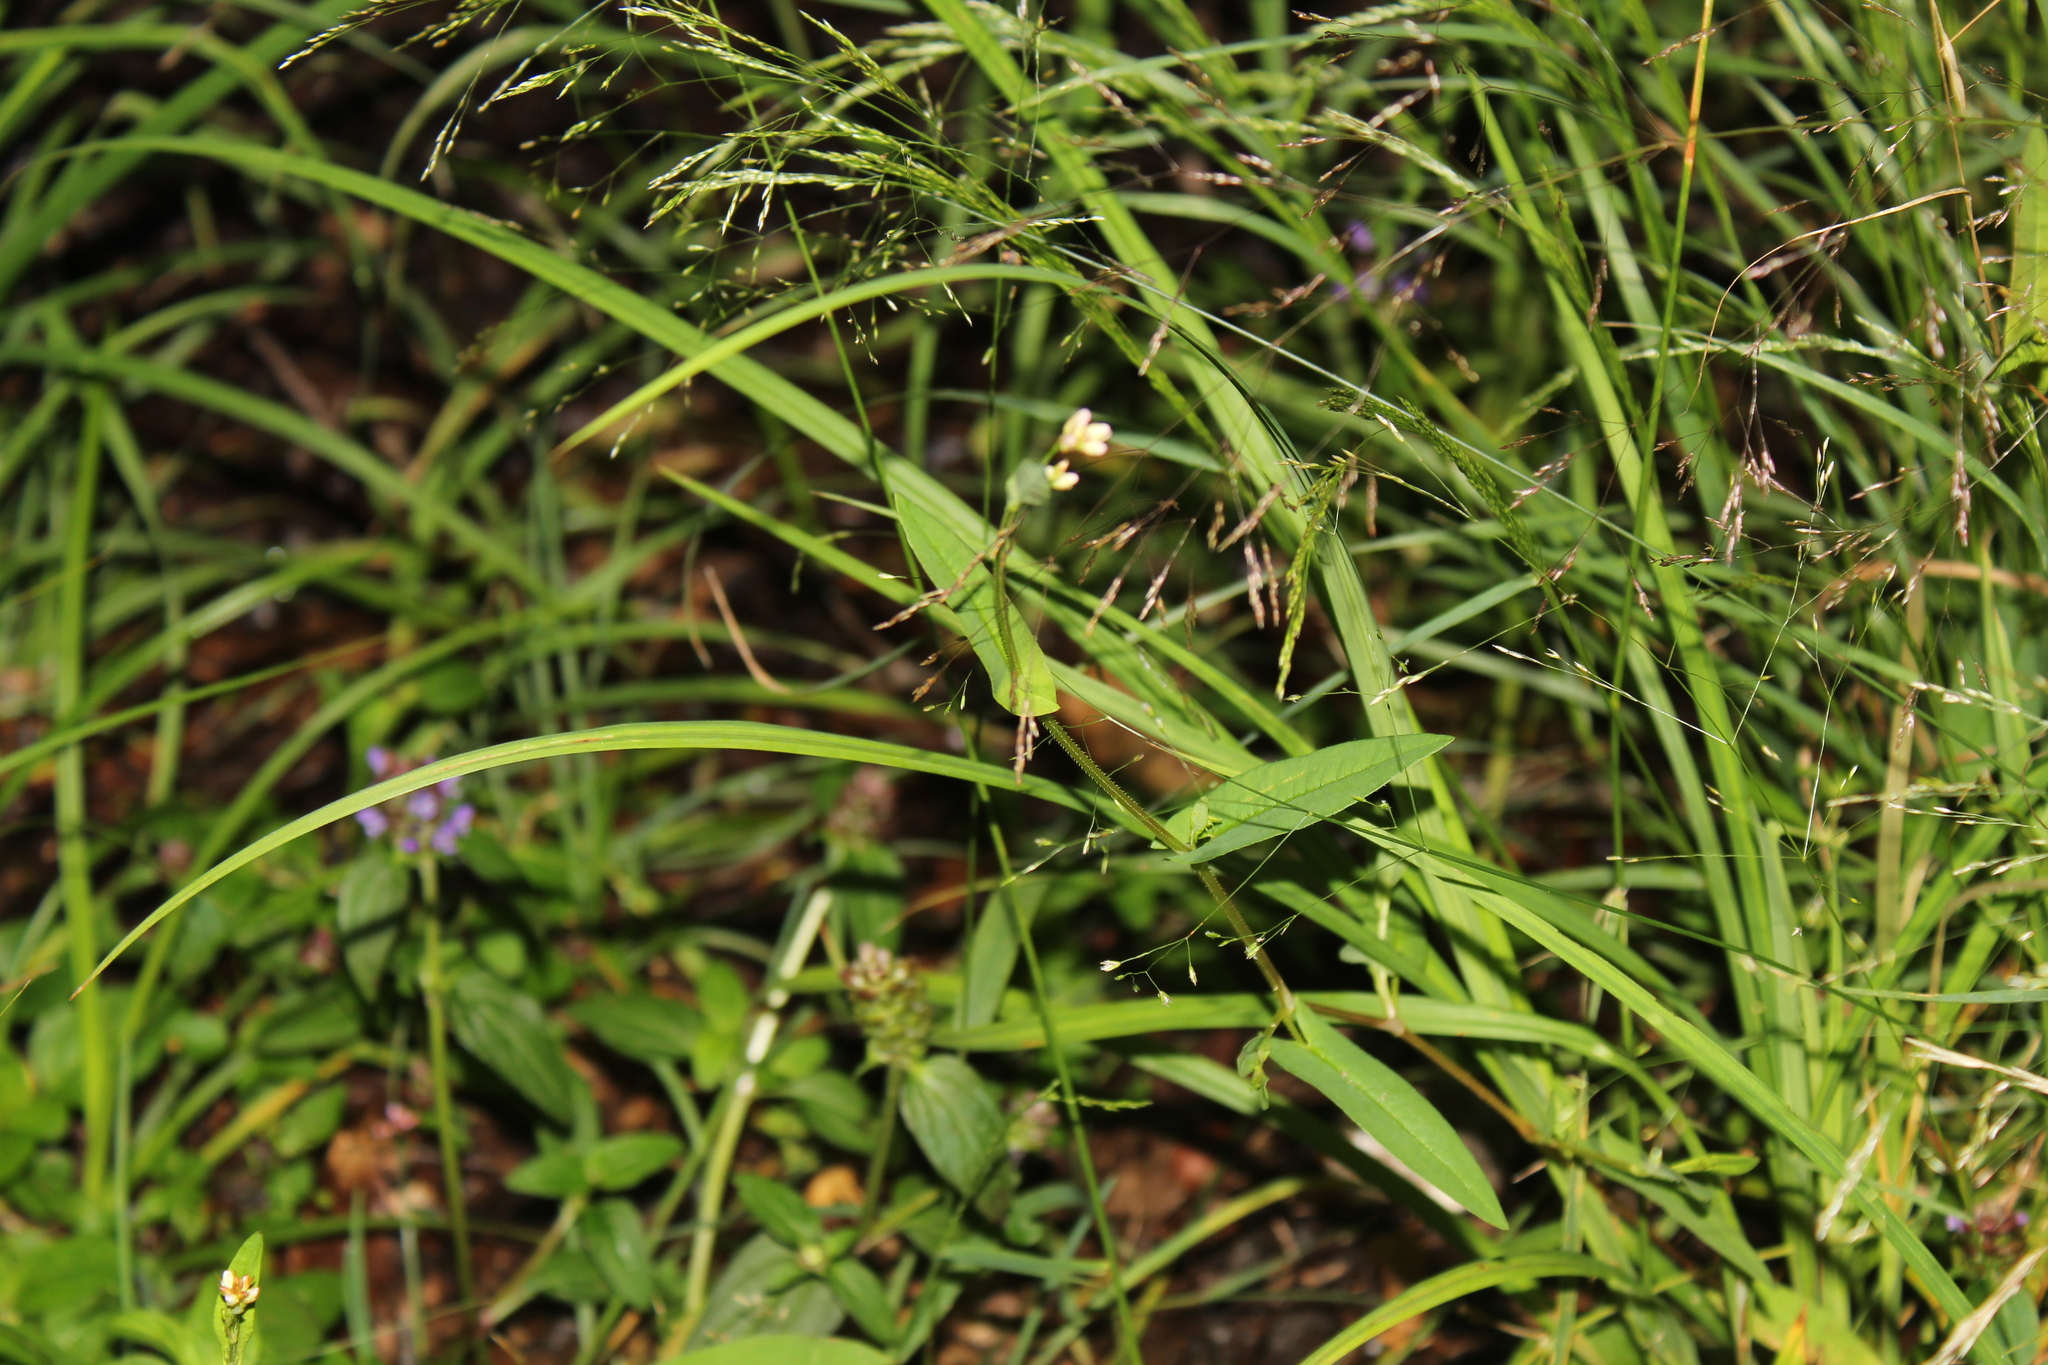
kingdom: Plantae
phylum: Tracheophyta
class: Magnoliopsida
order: Caryophyllales
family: Polygonaceae
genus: Persicaria
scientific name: Persicaria sagittata
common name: American tearthumb
